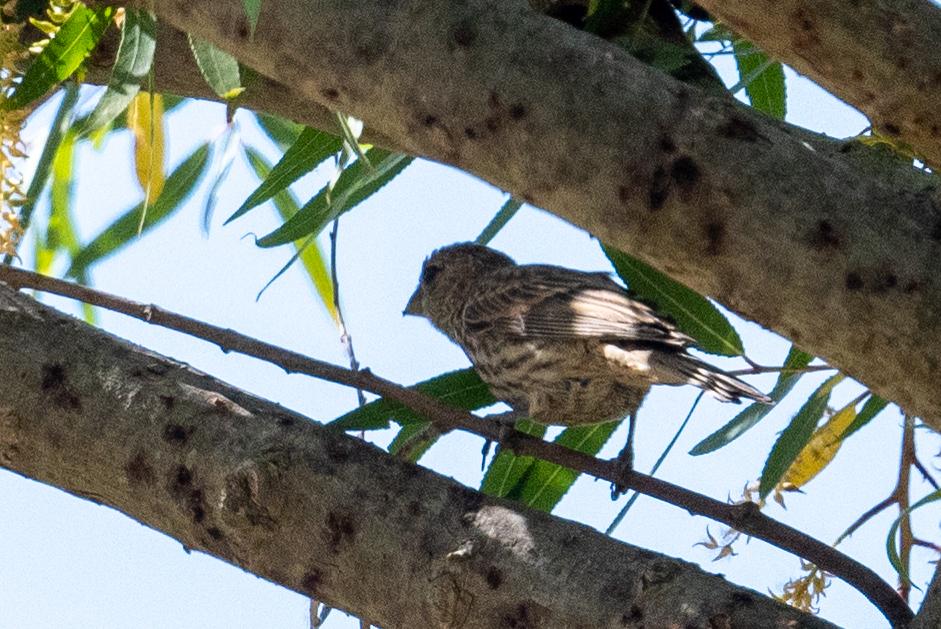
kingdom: Animalia
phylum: Chordata
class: Aves
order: Passeriformes
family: Fringillidae
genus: Haemorhous
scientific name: Haemorhous mexicanus
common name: House finch
